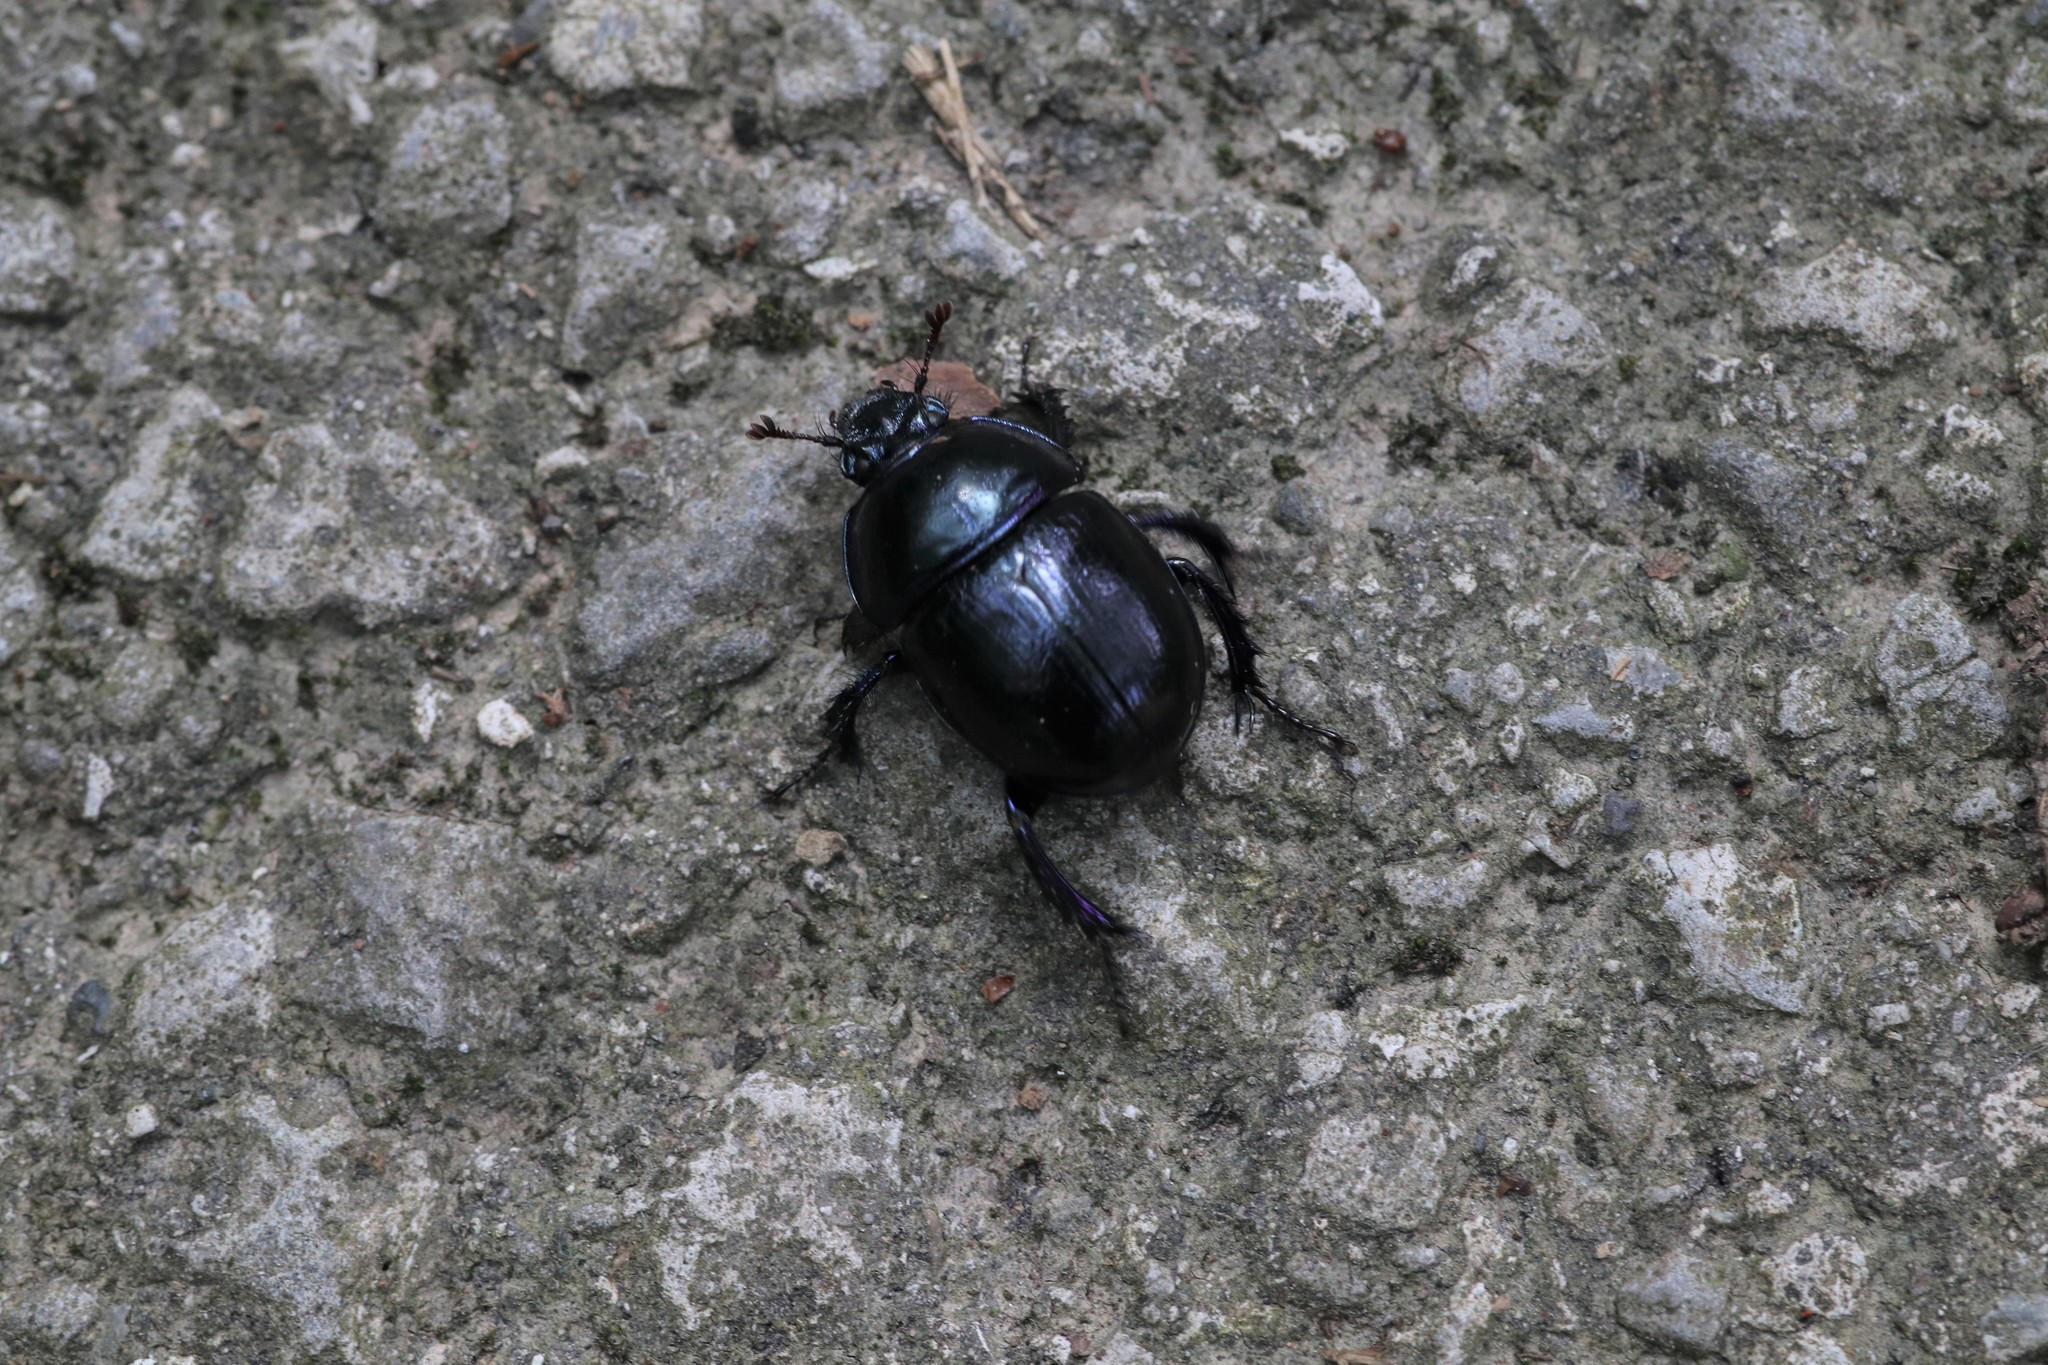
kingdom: Animalia
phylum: Arthropoda
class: Insecta
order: Coleoptera
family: Geotrupidae
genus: Anoplotrupes
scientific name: Anoplotrupes stercorosus
